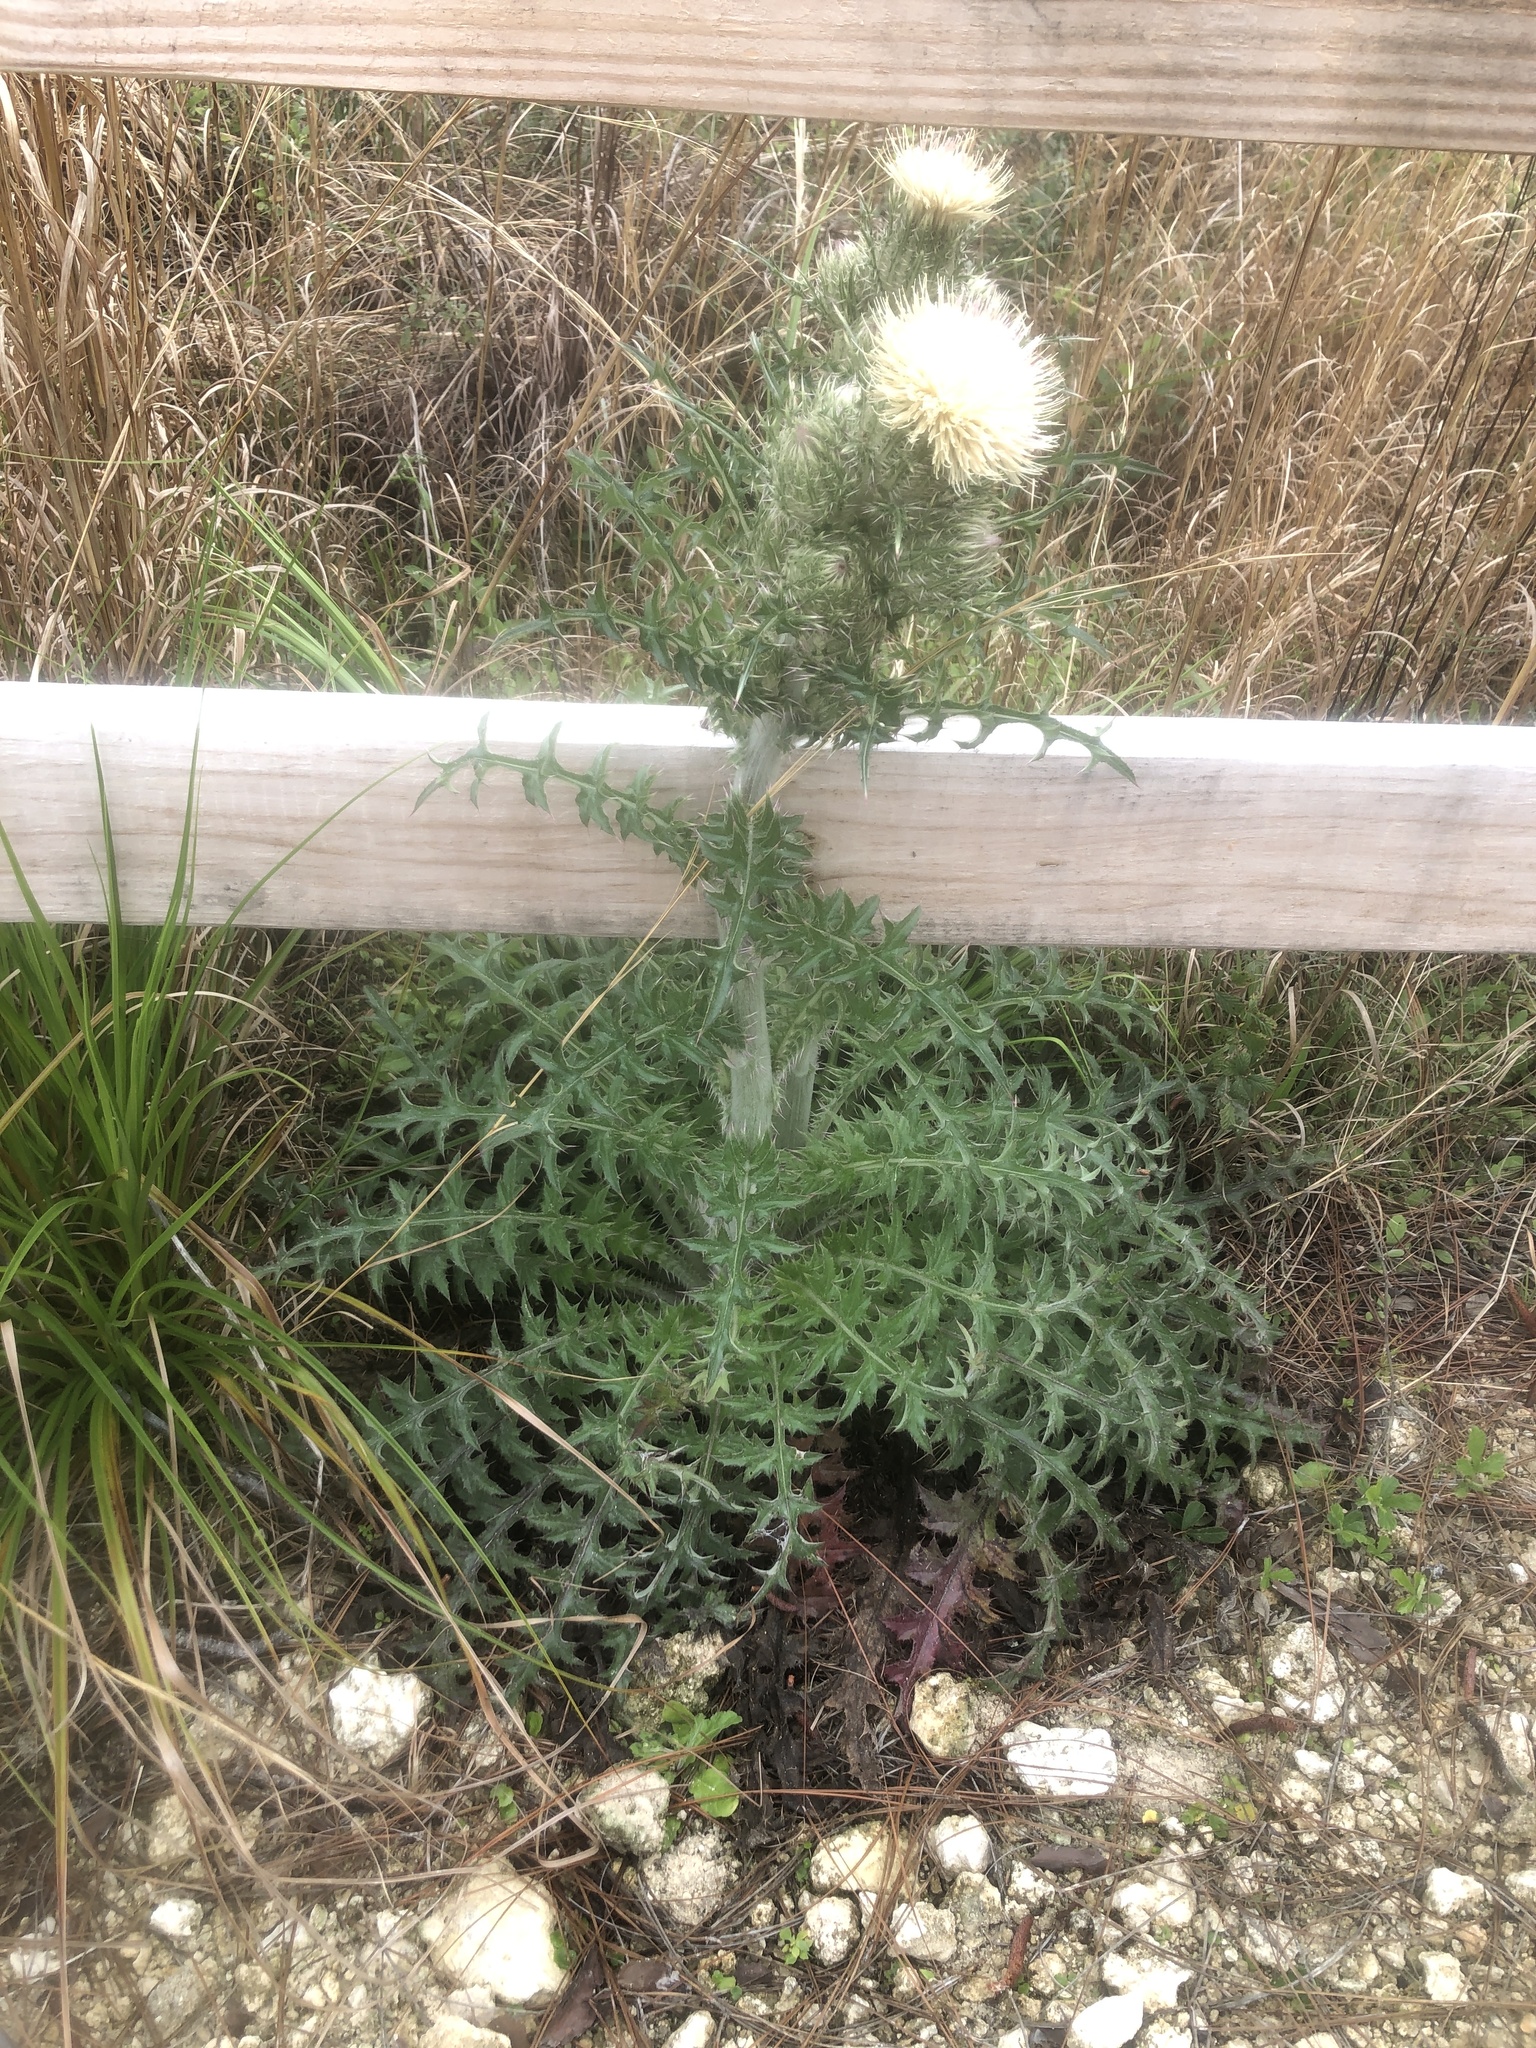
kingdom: Plantae
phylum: Tracheophyta
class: Magnoliopsida
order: Asterales
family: Asteraceae
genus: Cirsium
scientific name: Cirsium horridulum
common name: Bristly thistle
